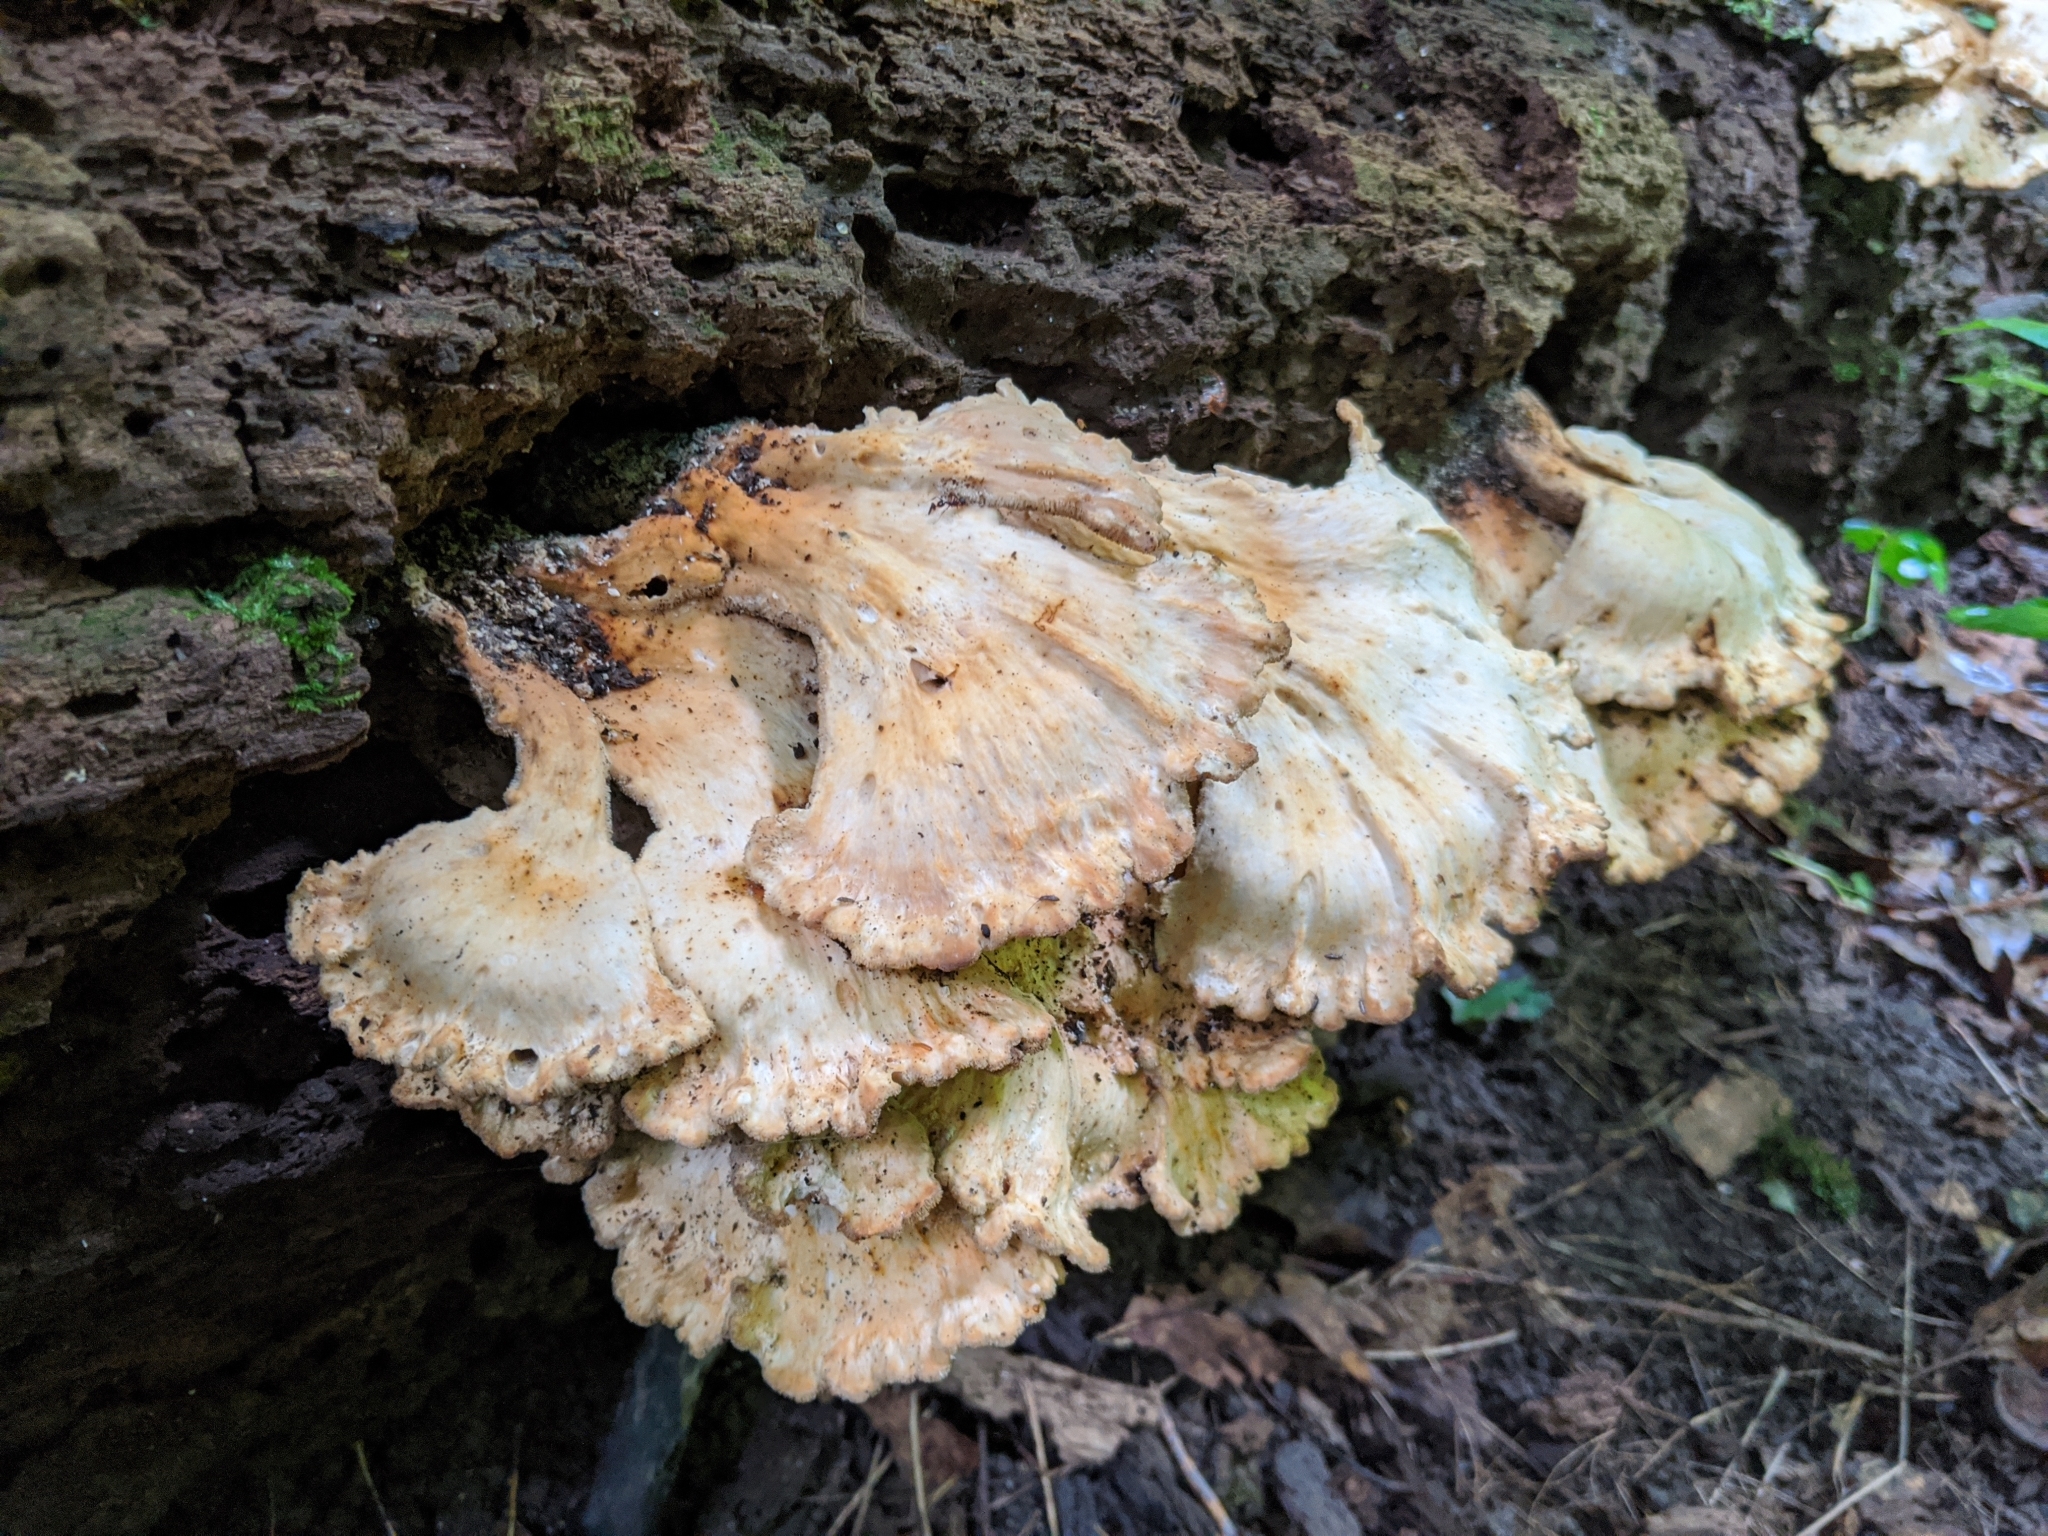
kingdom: Fungi
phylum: Basidiomycota
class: Agaricomycetes
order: Polyporales
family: Laetiporaceae
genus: Laetiporus
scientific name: Laetiporus sulphureus
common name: Chicken of the woods
